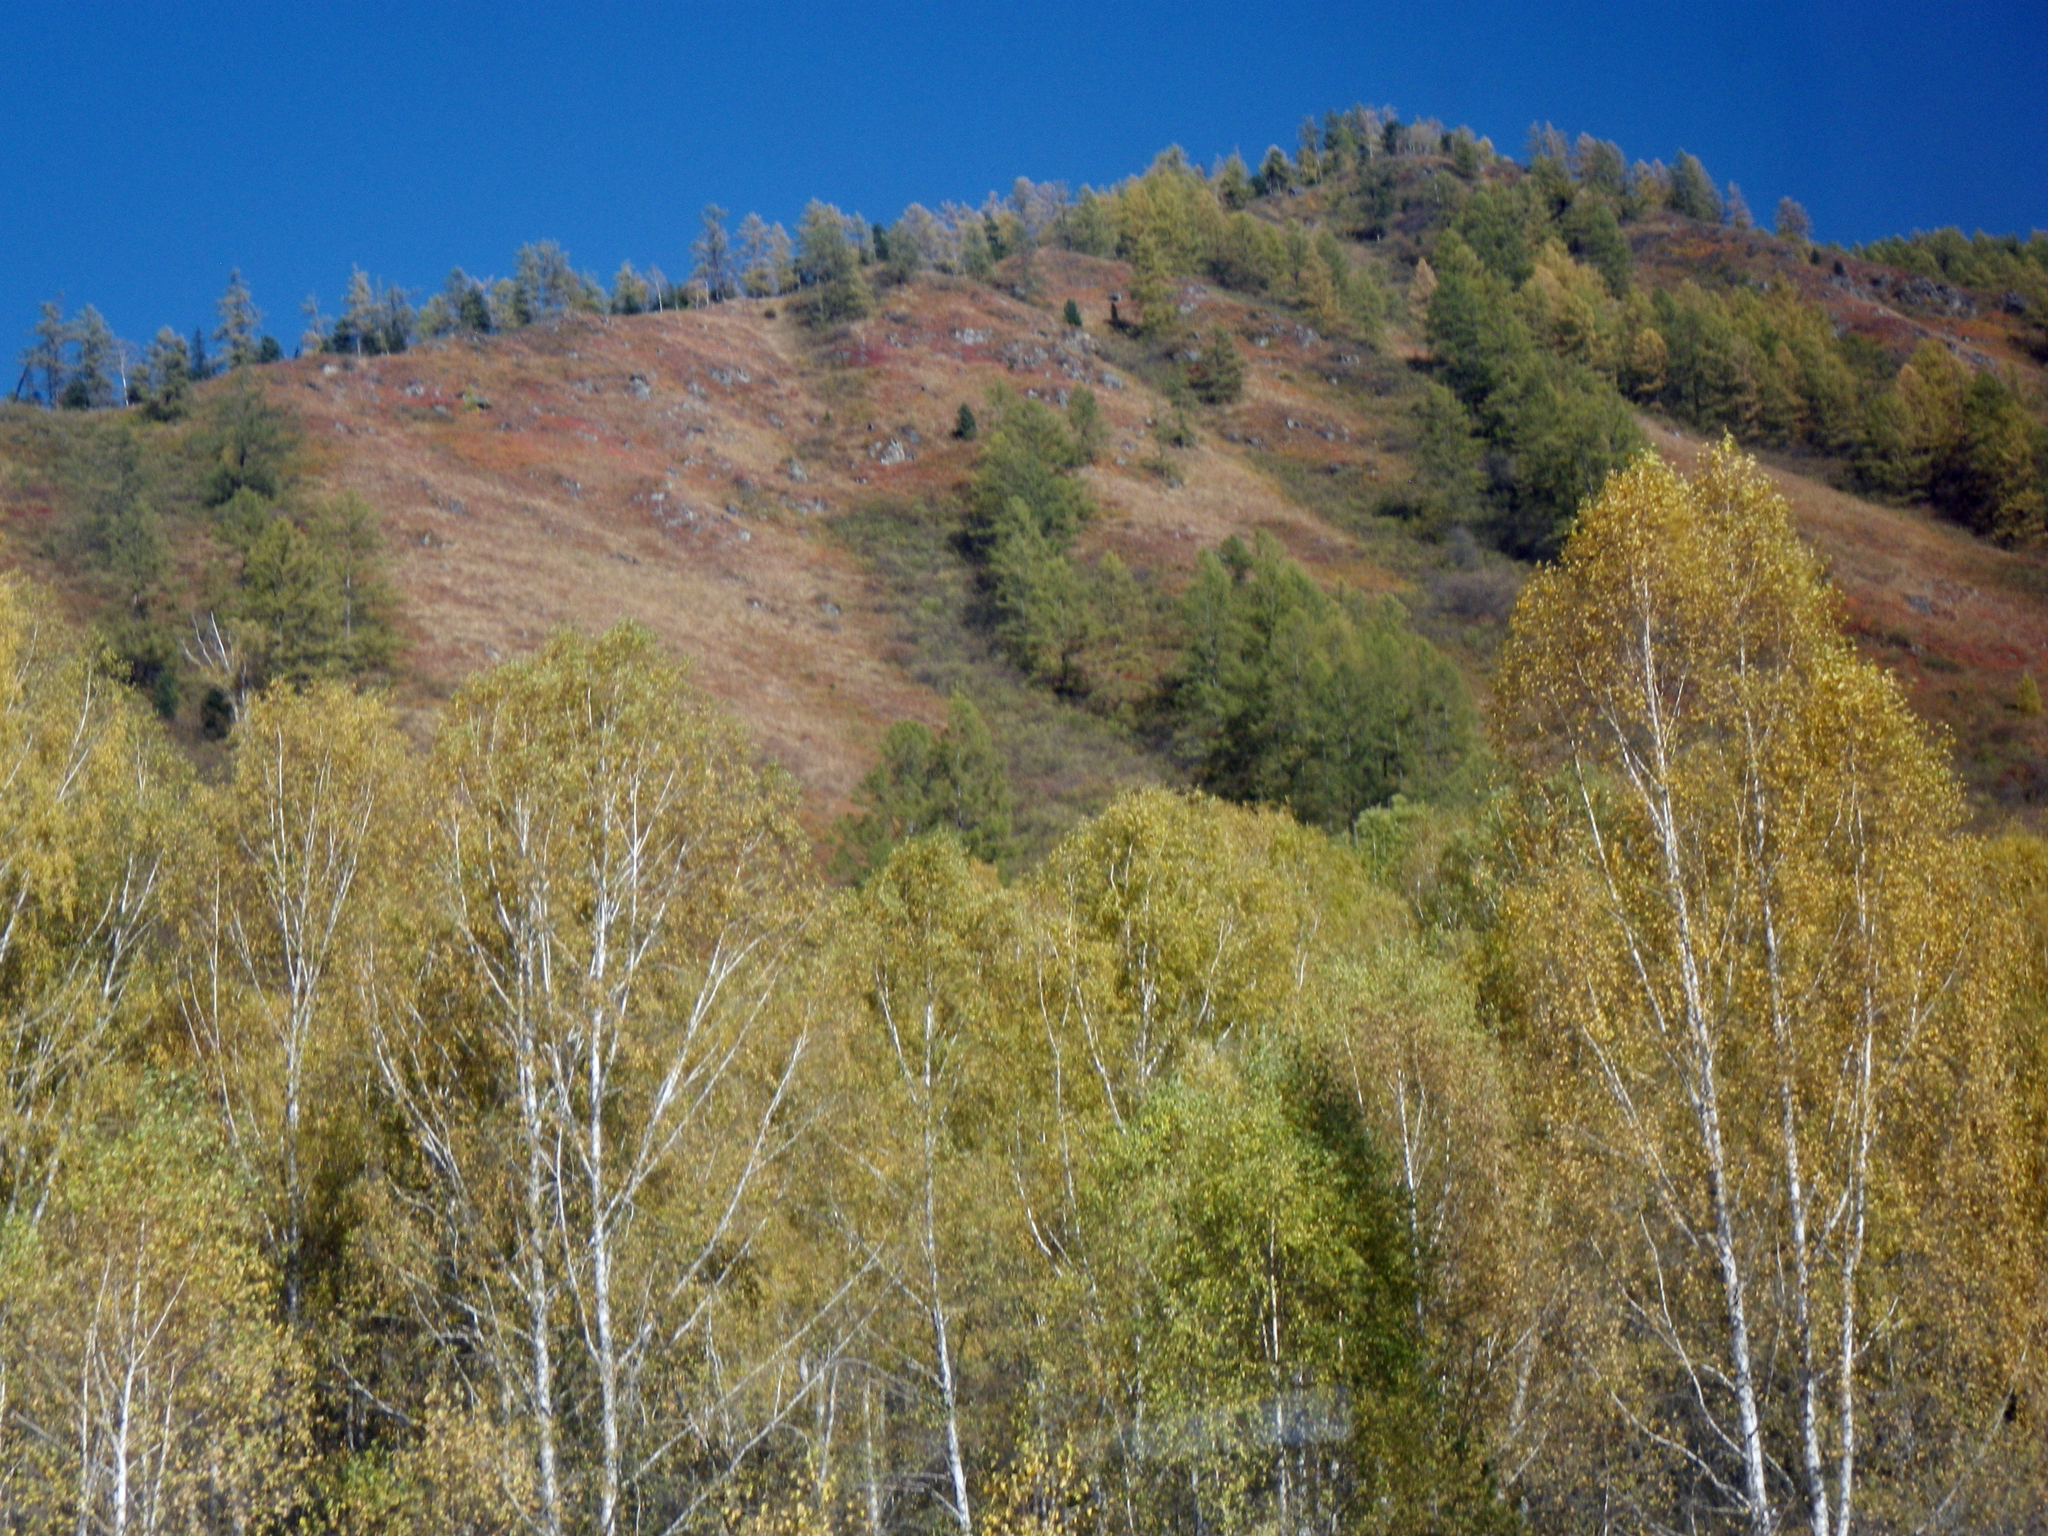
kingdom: Plantae
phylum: Tracheophyta
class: Magnoliopsida
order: Fagales
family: Betulaceae
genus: Betula
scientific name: Betula pendula
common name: Silver birch
